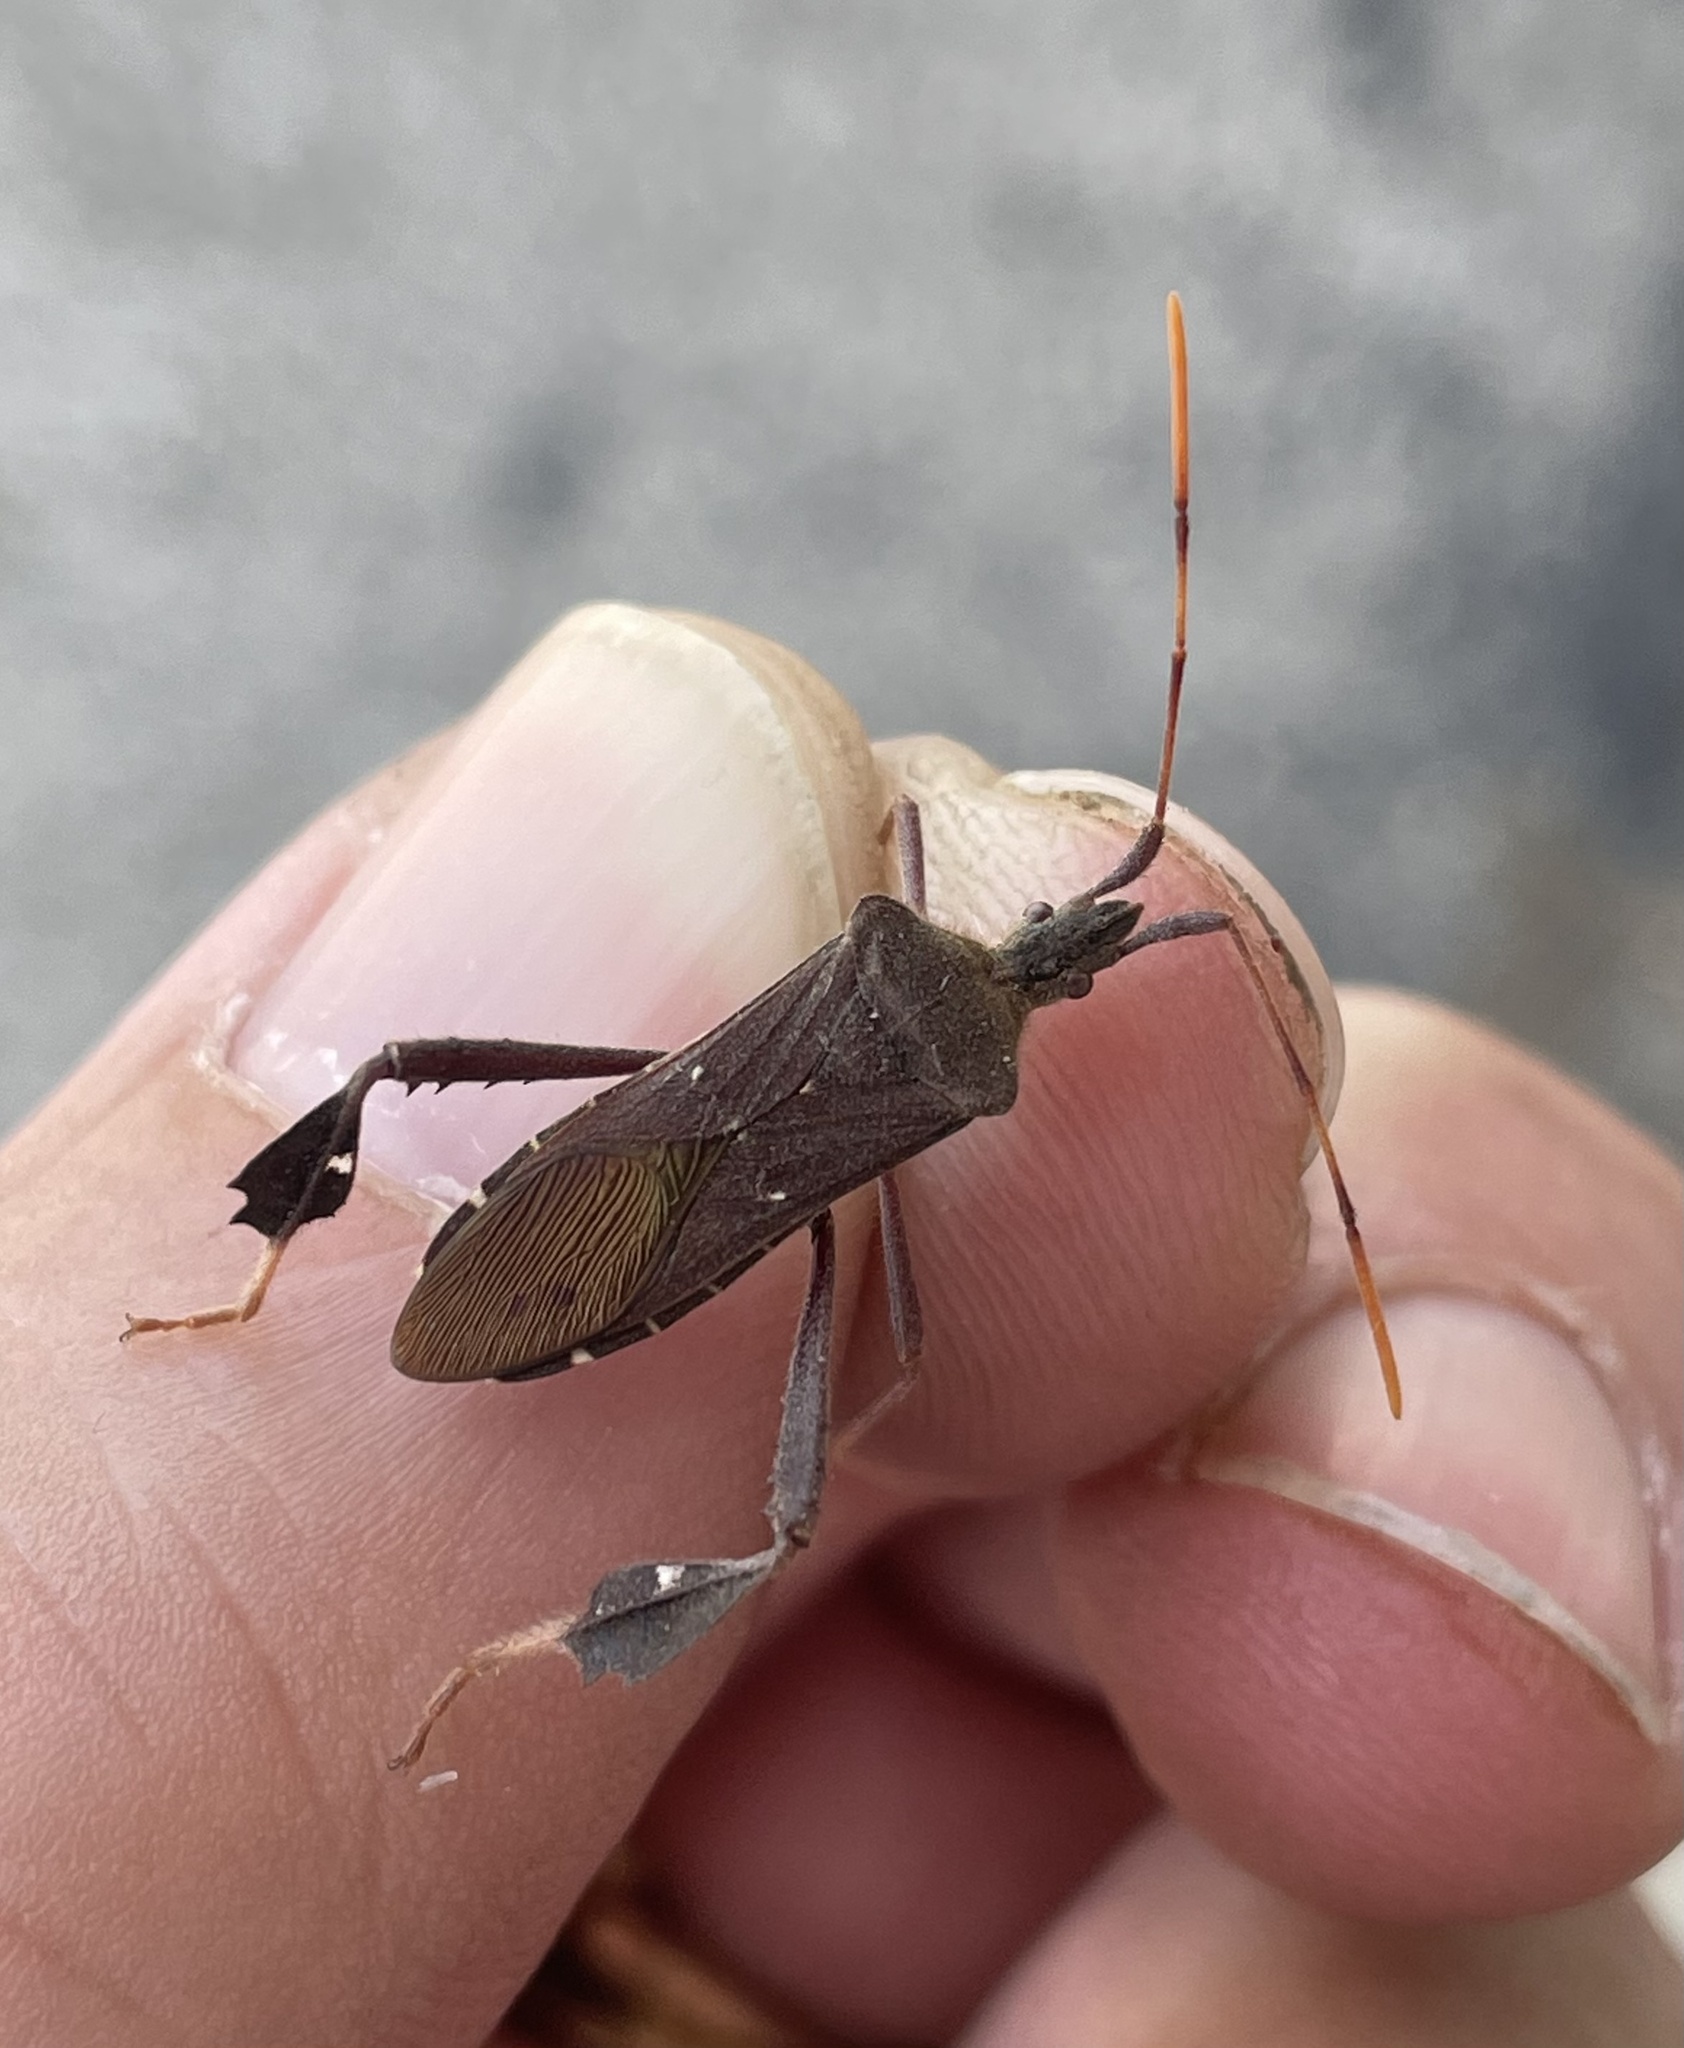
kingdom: Animalia
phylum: Arthropoda
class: Insecta
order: Hemiptera
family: Coreidae
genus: Leptoglossus
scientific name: Leptoglossus oppositus
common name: Northern leaf-footed bug
